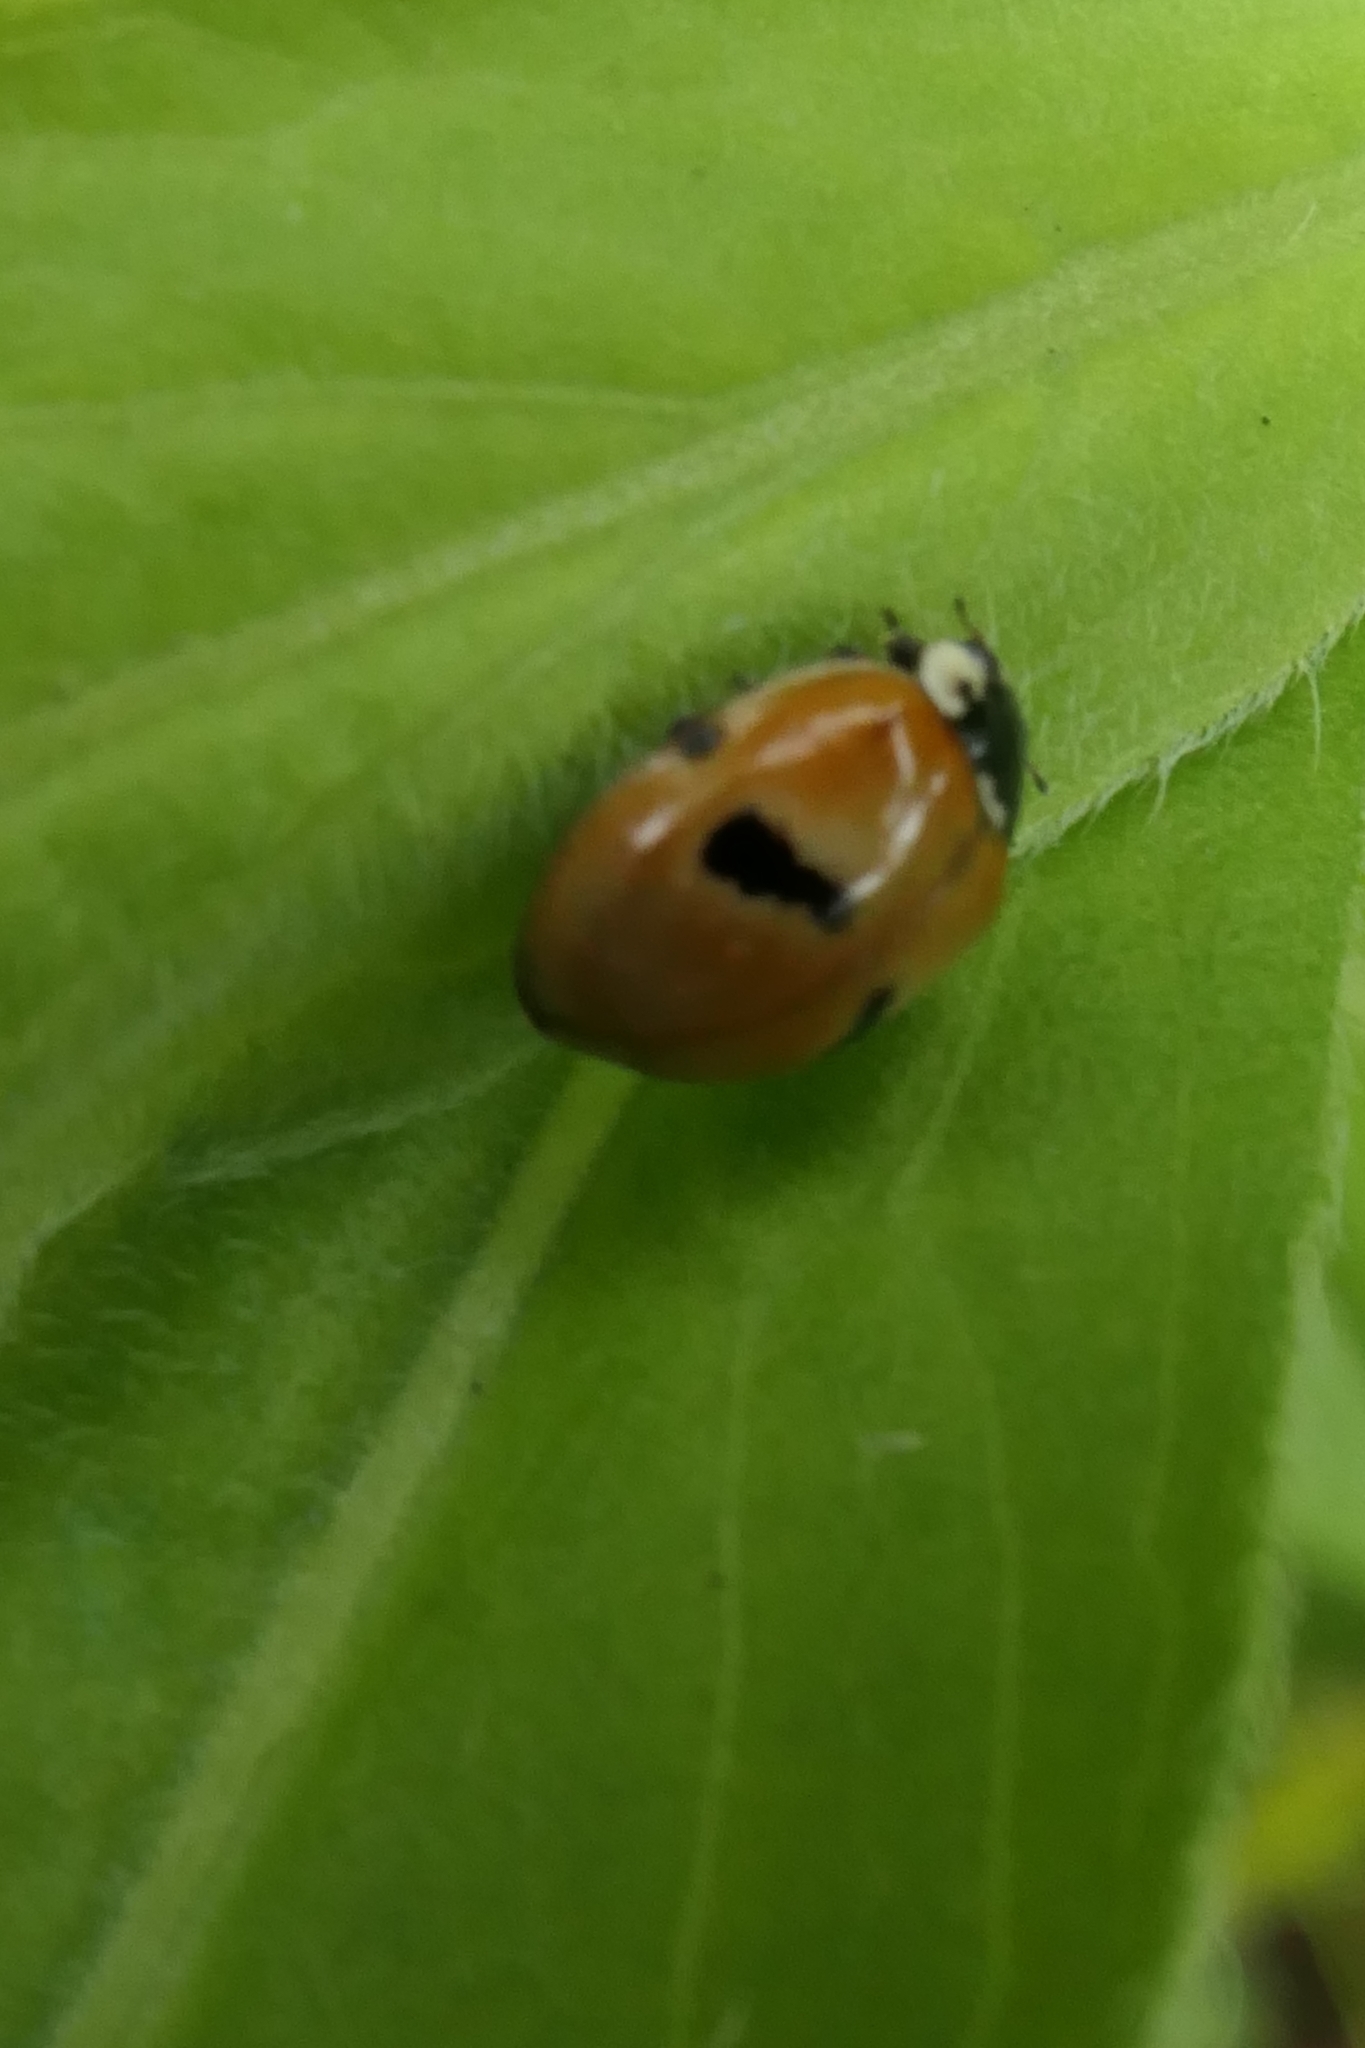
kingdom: Animalia
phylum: Arthropoda
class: Insecta
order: Coleoptera
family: Coccinellidae
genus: Adalia
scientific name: Adalia bipunctata
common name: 2-spot ladybird
